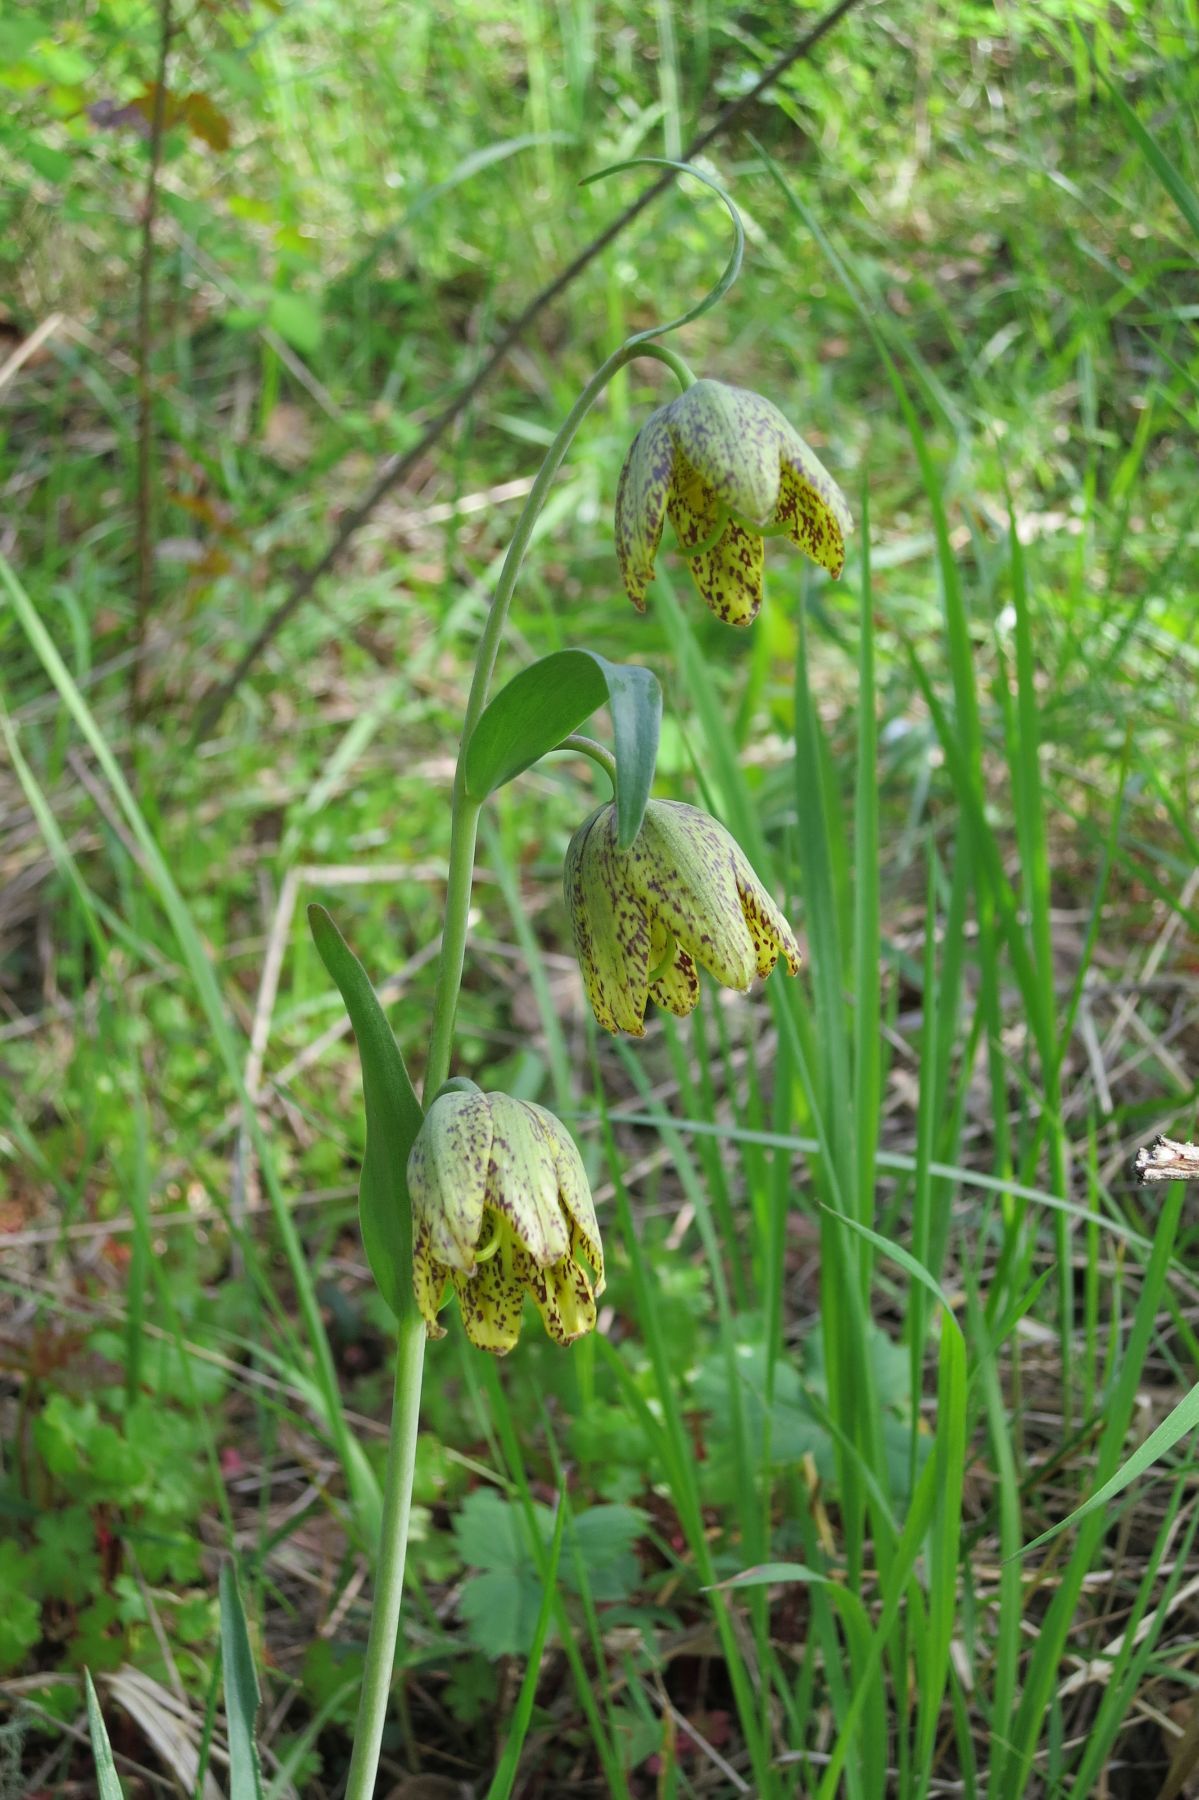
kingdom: Plantae
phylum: Tracheophyta
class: Liliopsida
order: Liliales
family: Liliaceae
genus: Fritillaria
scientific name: Fritillaria affinis
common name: Ojai fritillary
